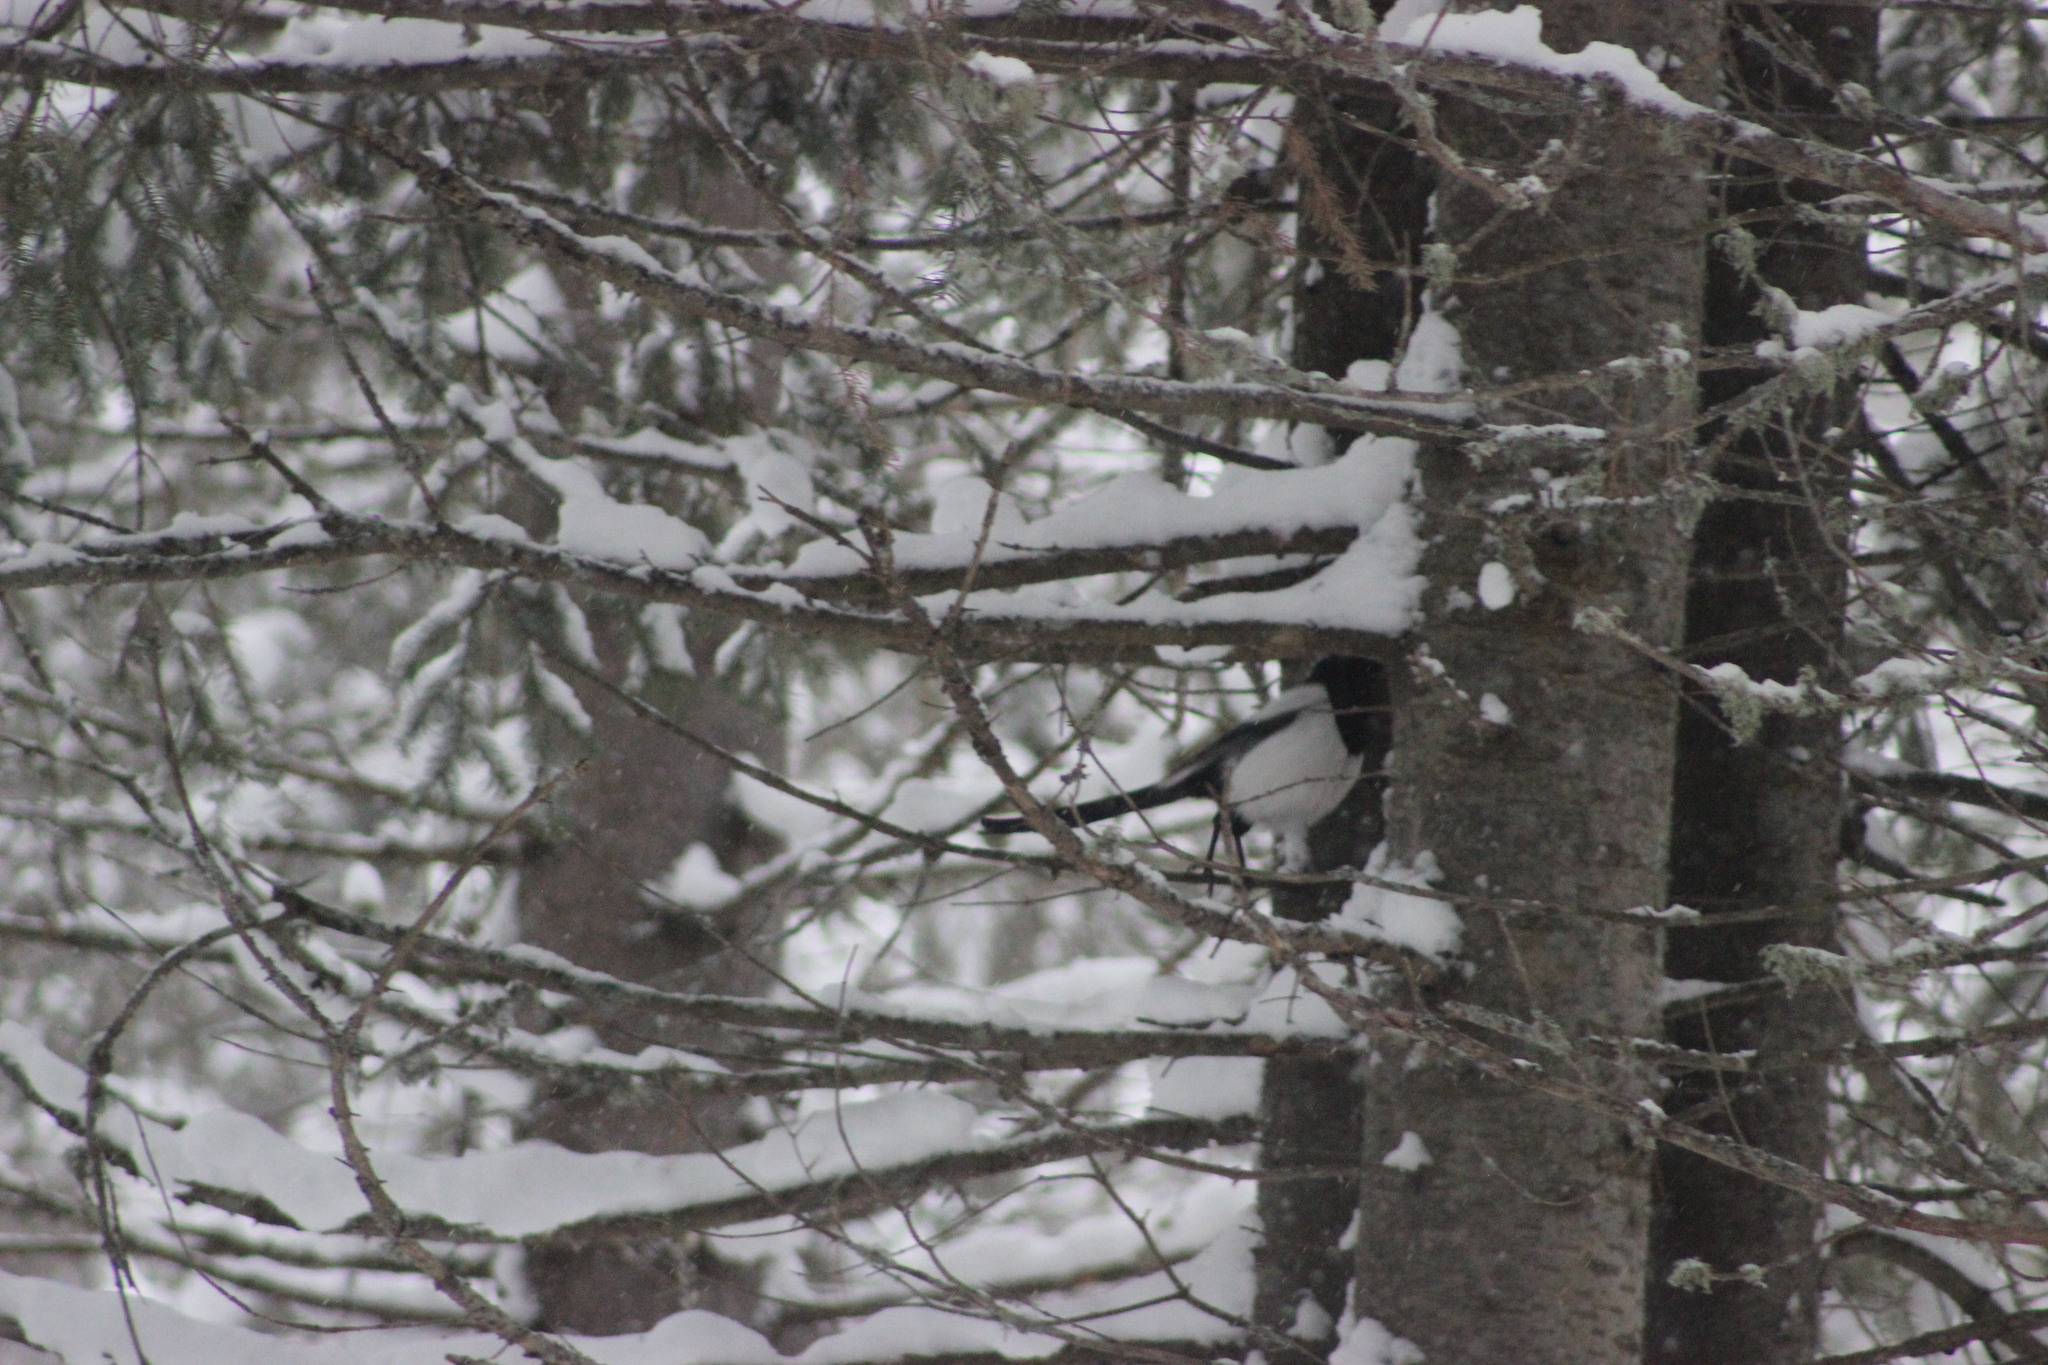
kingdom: Animalia
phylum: Chordata
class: Aves
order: Passeriformes
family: Corvidae
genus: Pica
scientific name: Pica pica
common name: Eurasian magpie
